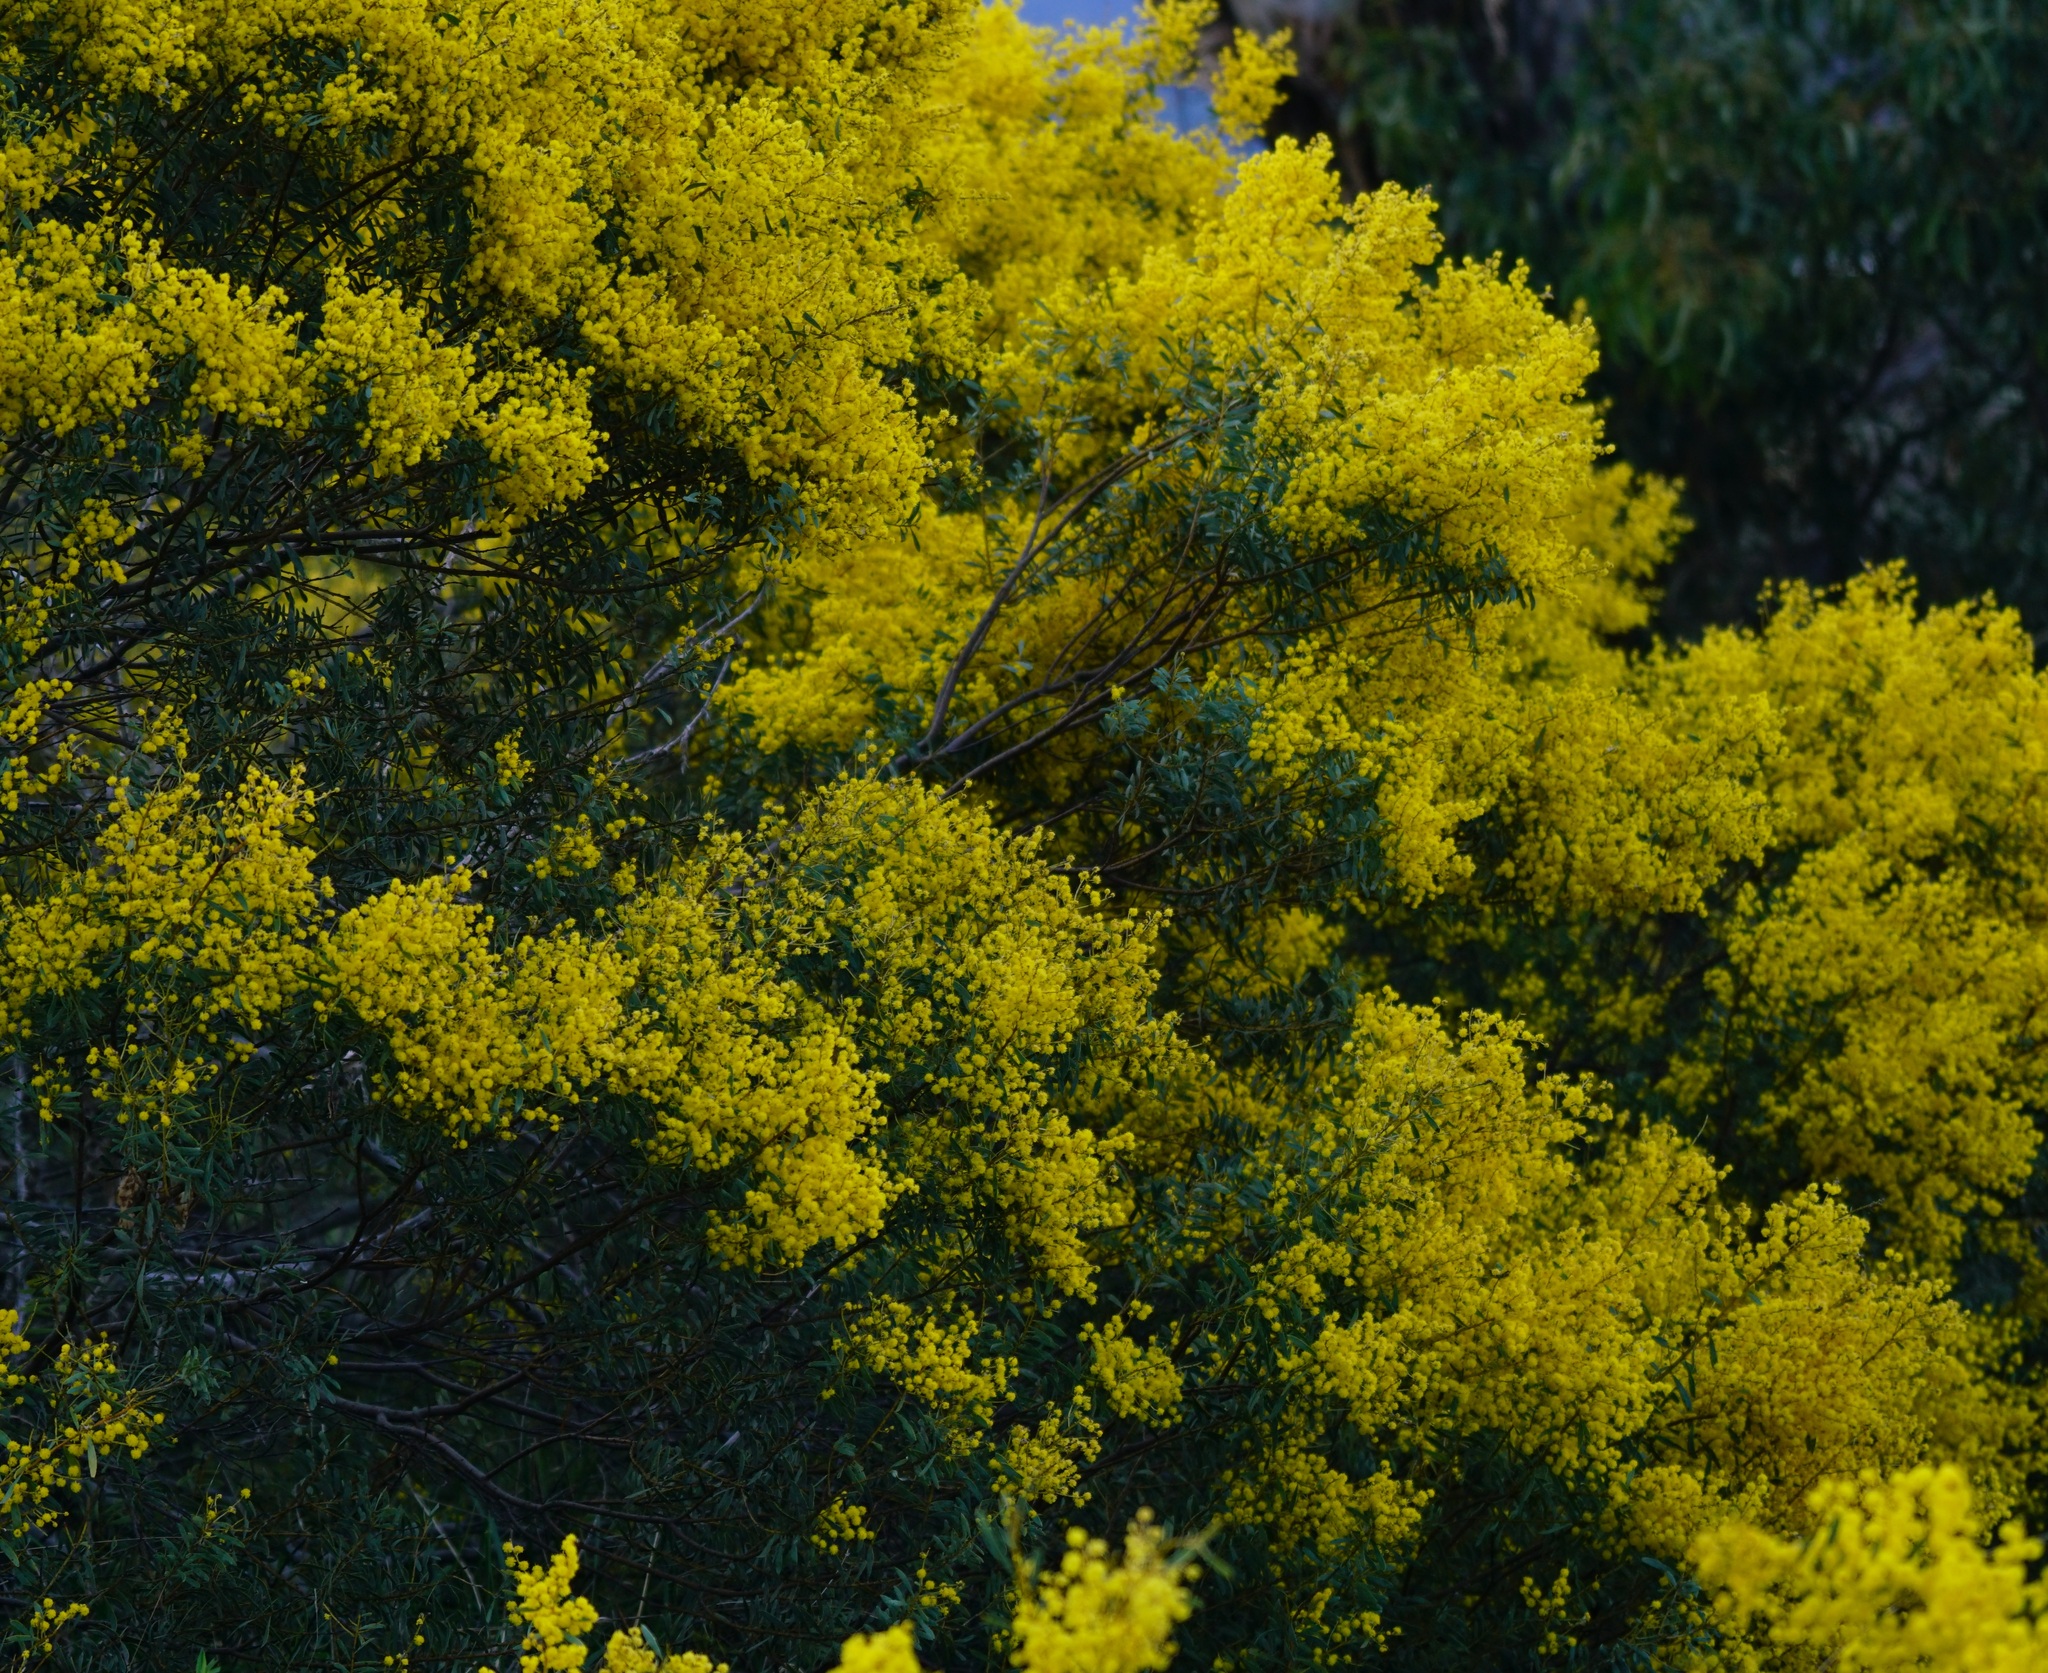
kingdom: Plantae
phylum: Tracheophyta
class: Magnoliopsida
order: Fabales
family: Fabaceae
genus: Acacia
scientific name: Acacia
